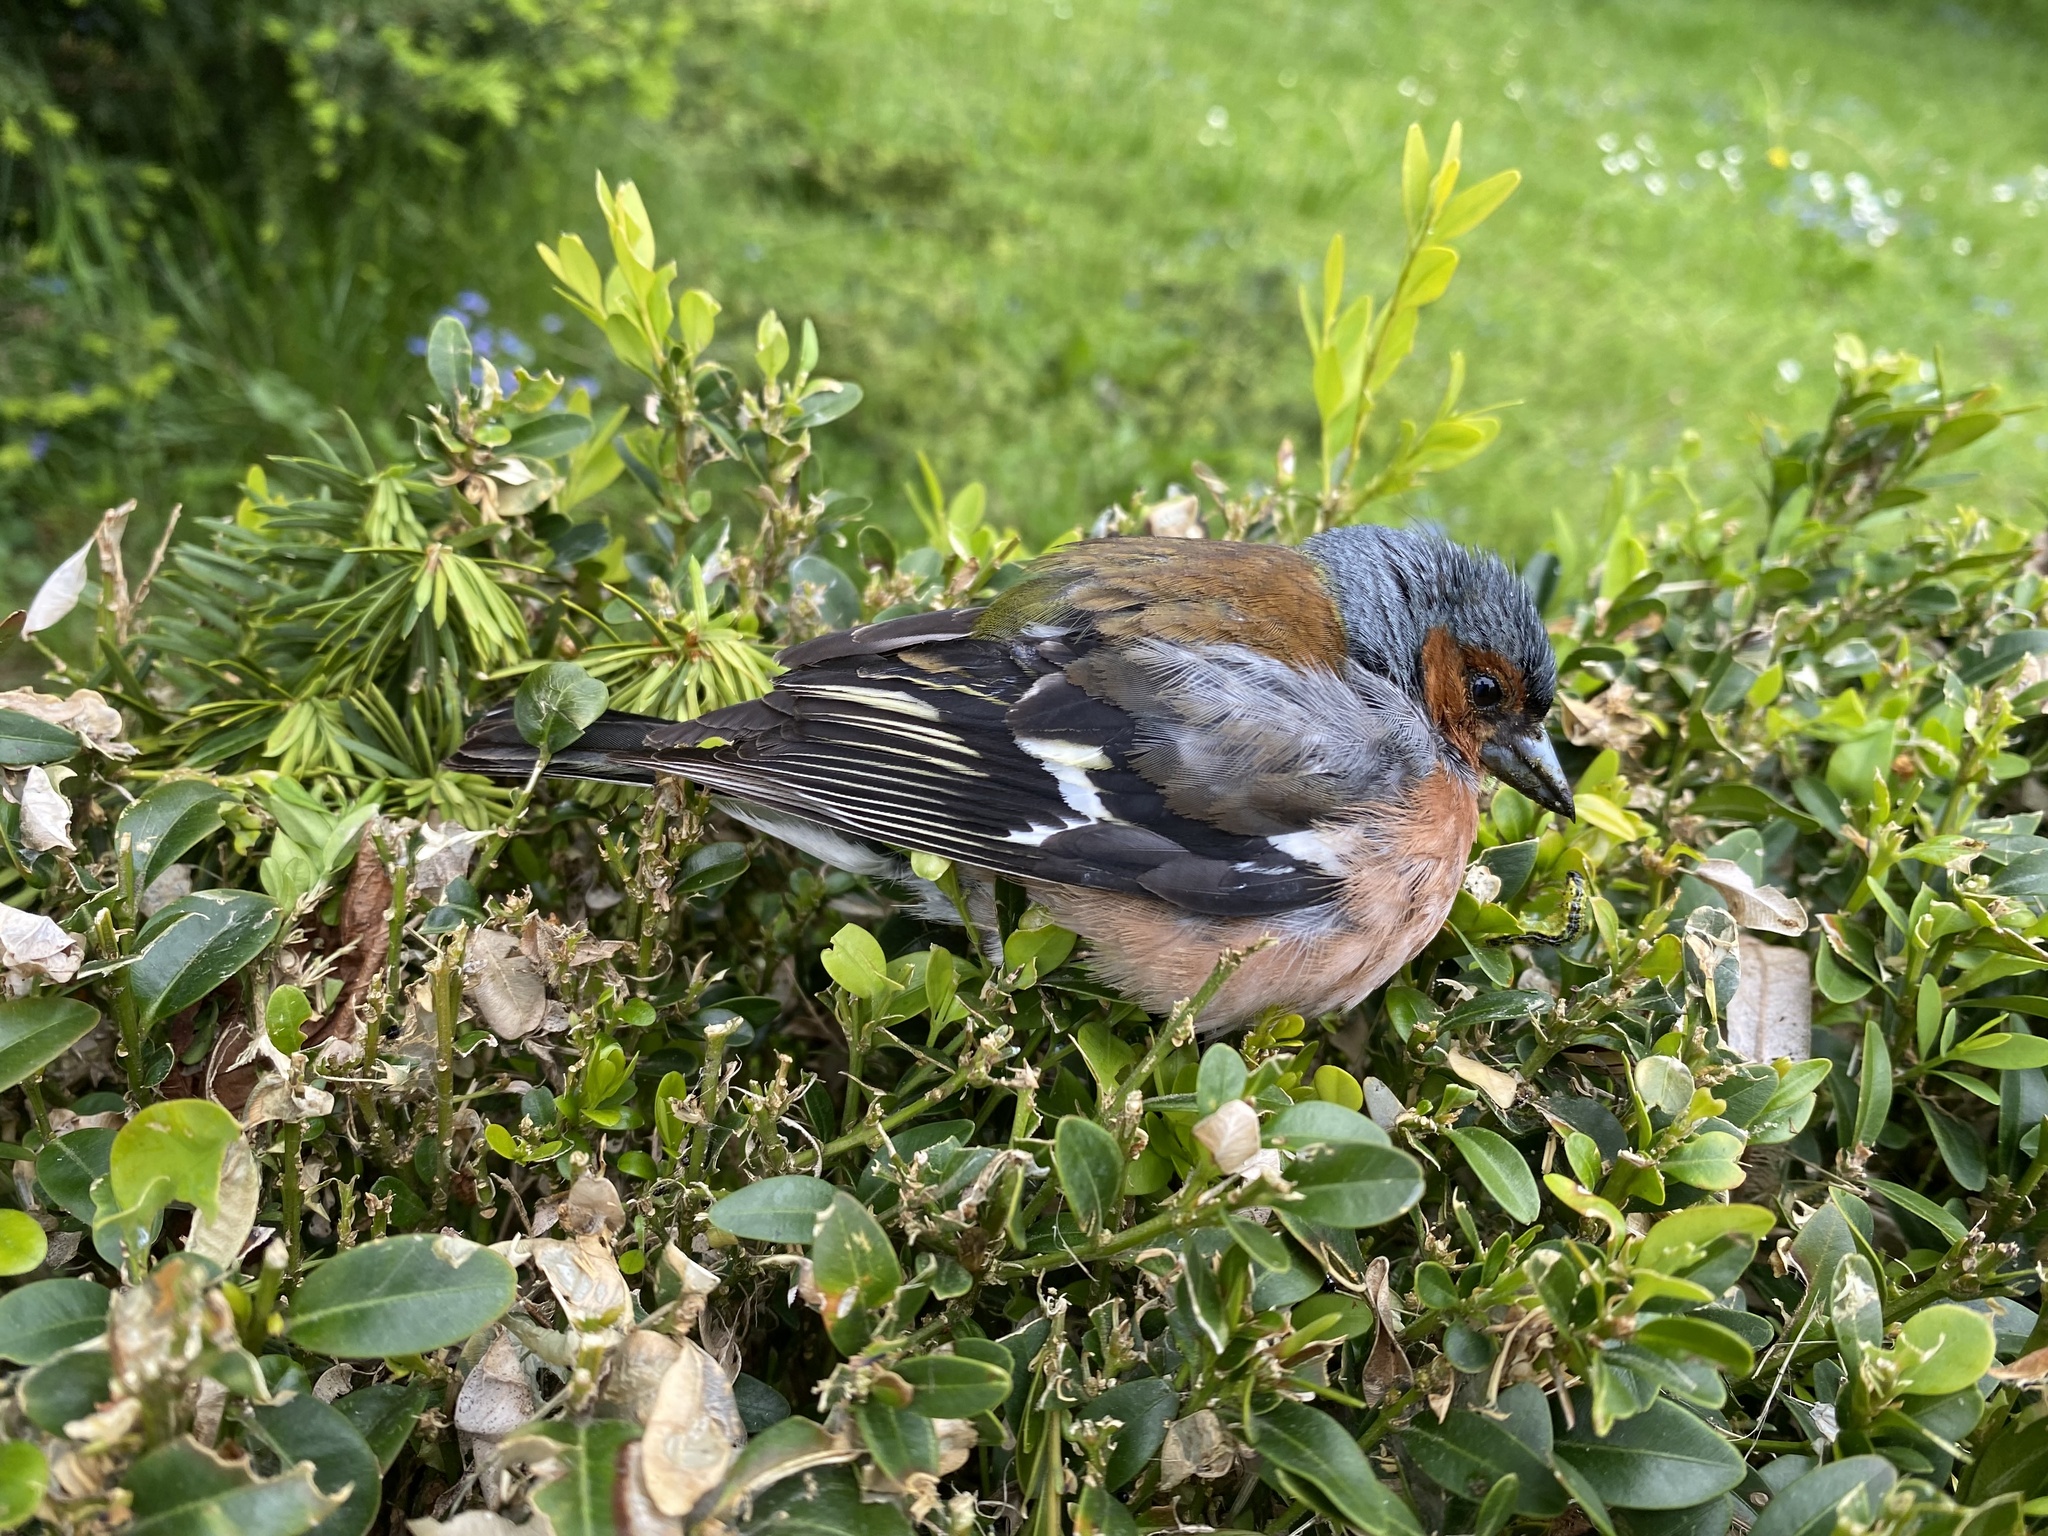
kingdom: Animalia
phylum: Chordata
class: Aves
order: Passeriformes
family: Fringillidae
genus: Fringilla
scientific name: Fringilla coelebs
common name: Common chaffinch
